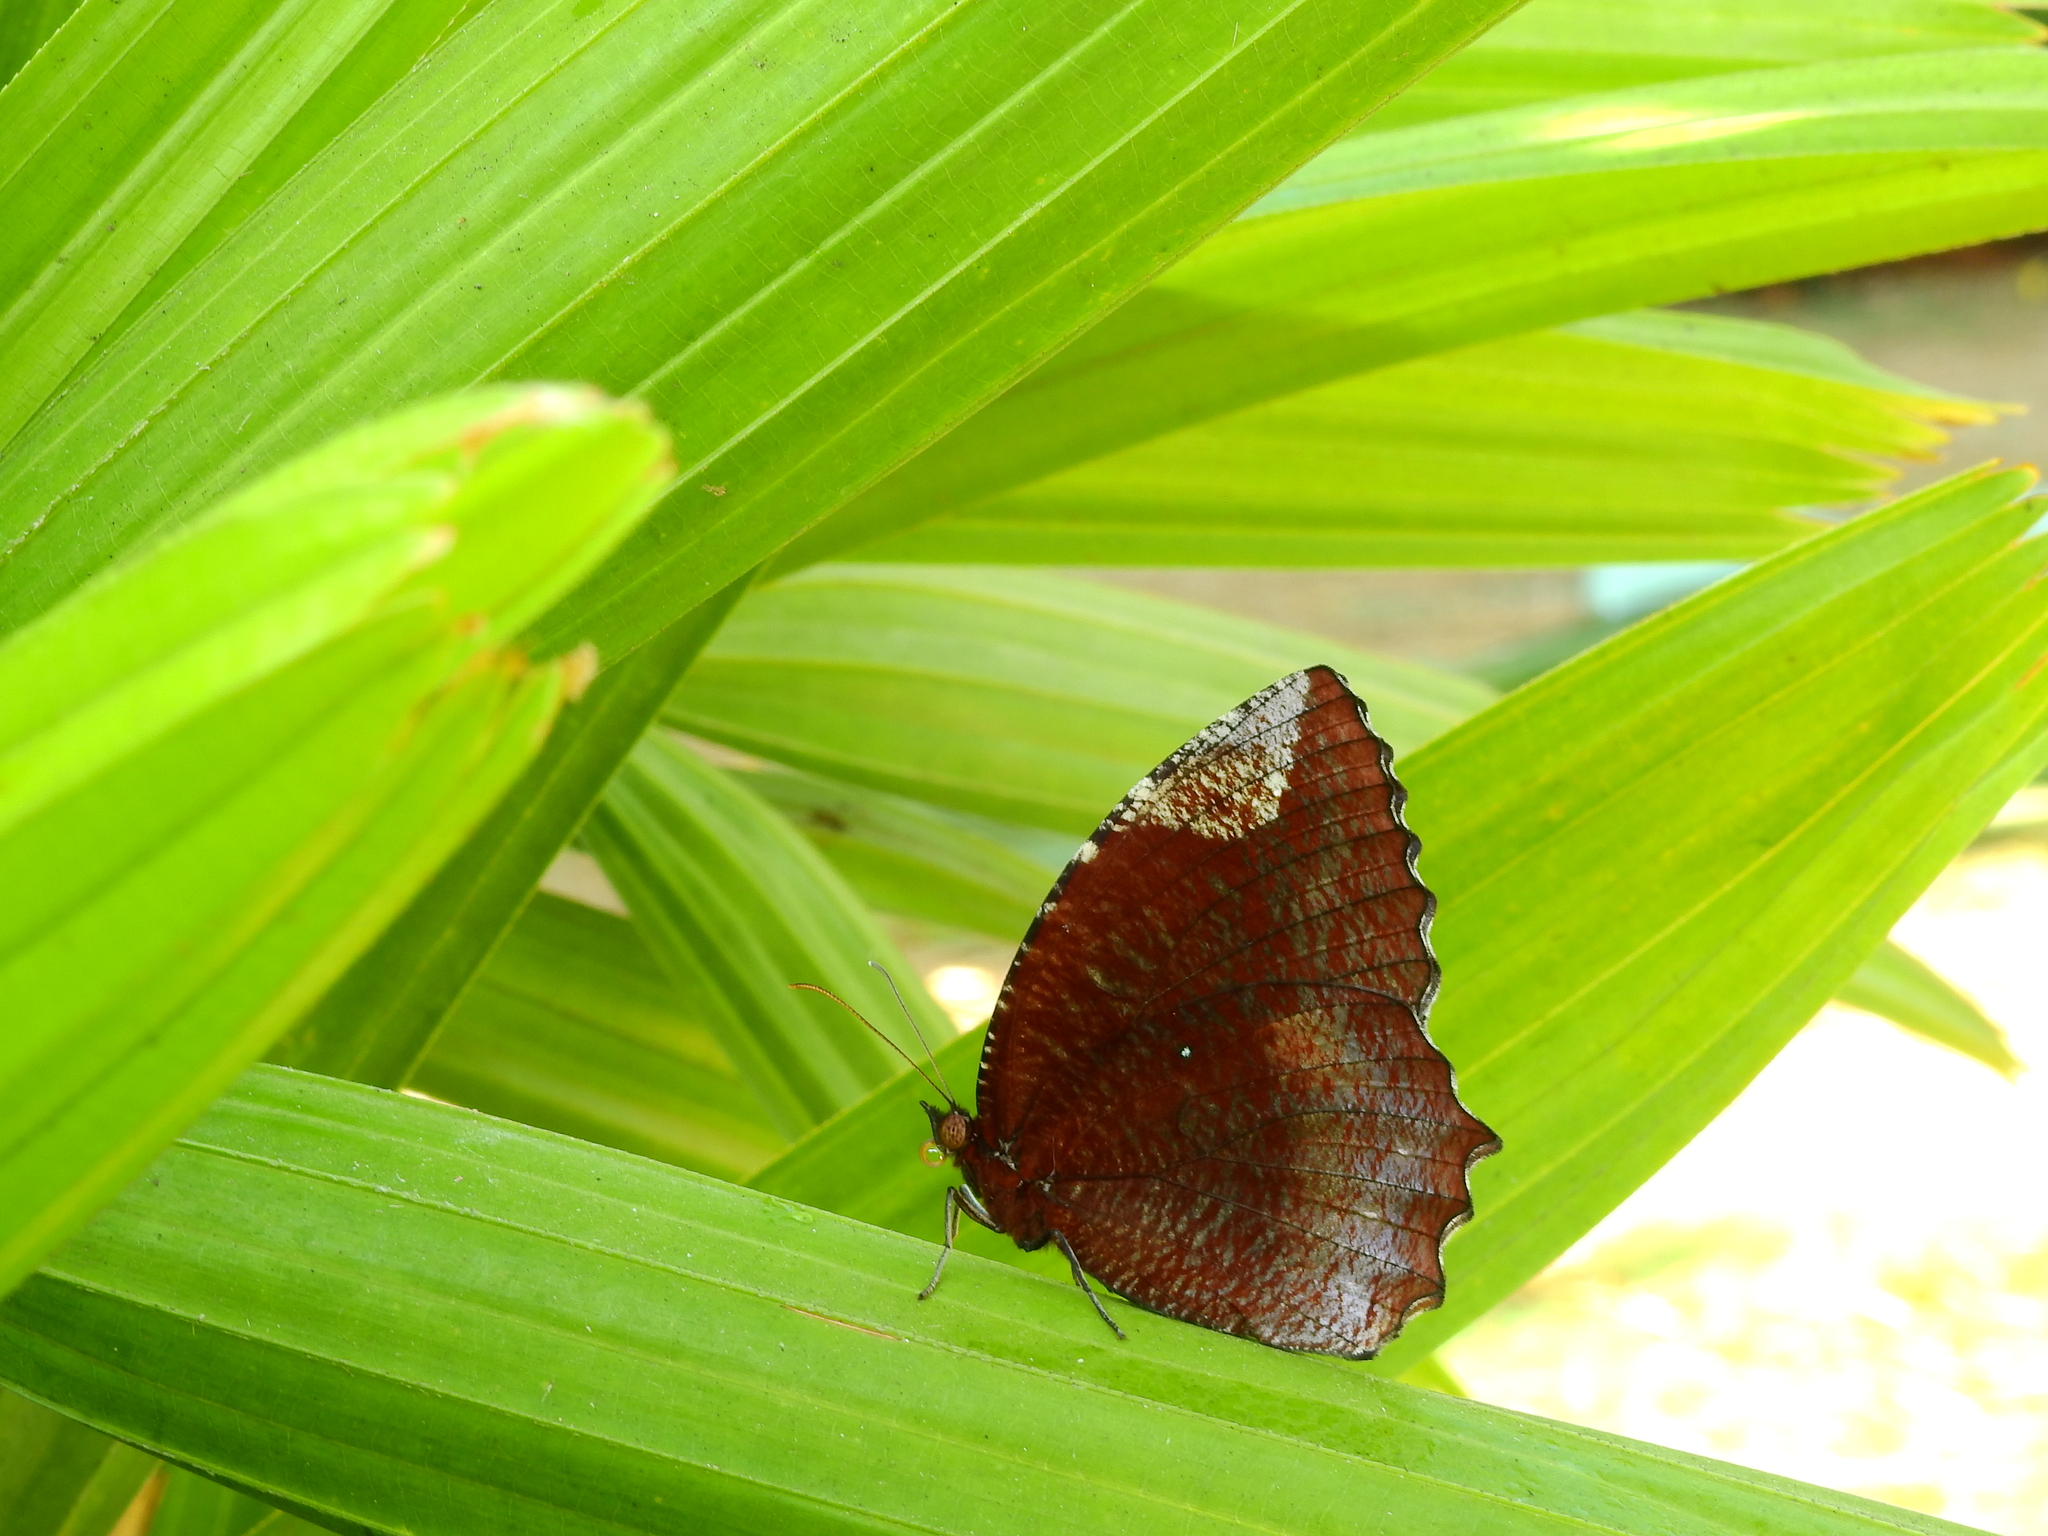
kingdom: Animalia
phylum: Arthropoda
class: Insecta
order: Lepidoptera
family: Nymphalidae
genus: Elymnias
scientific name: Elymnias hypermnestra
